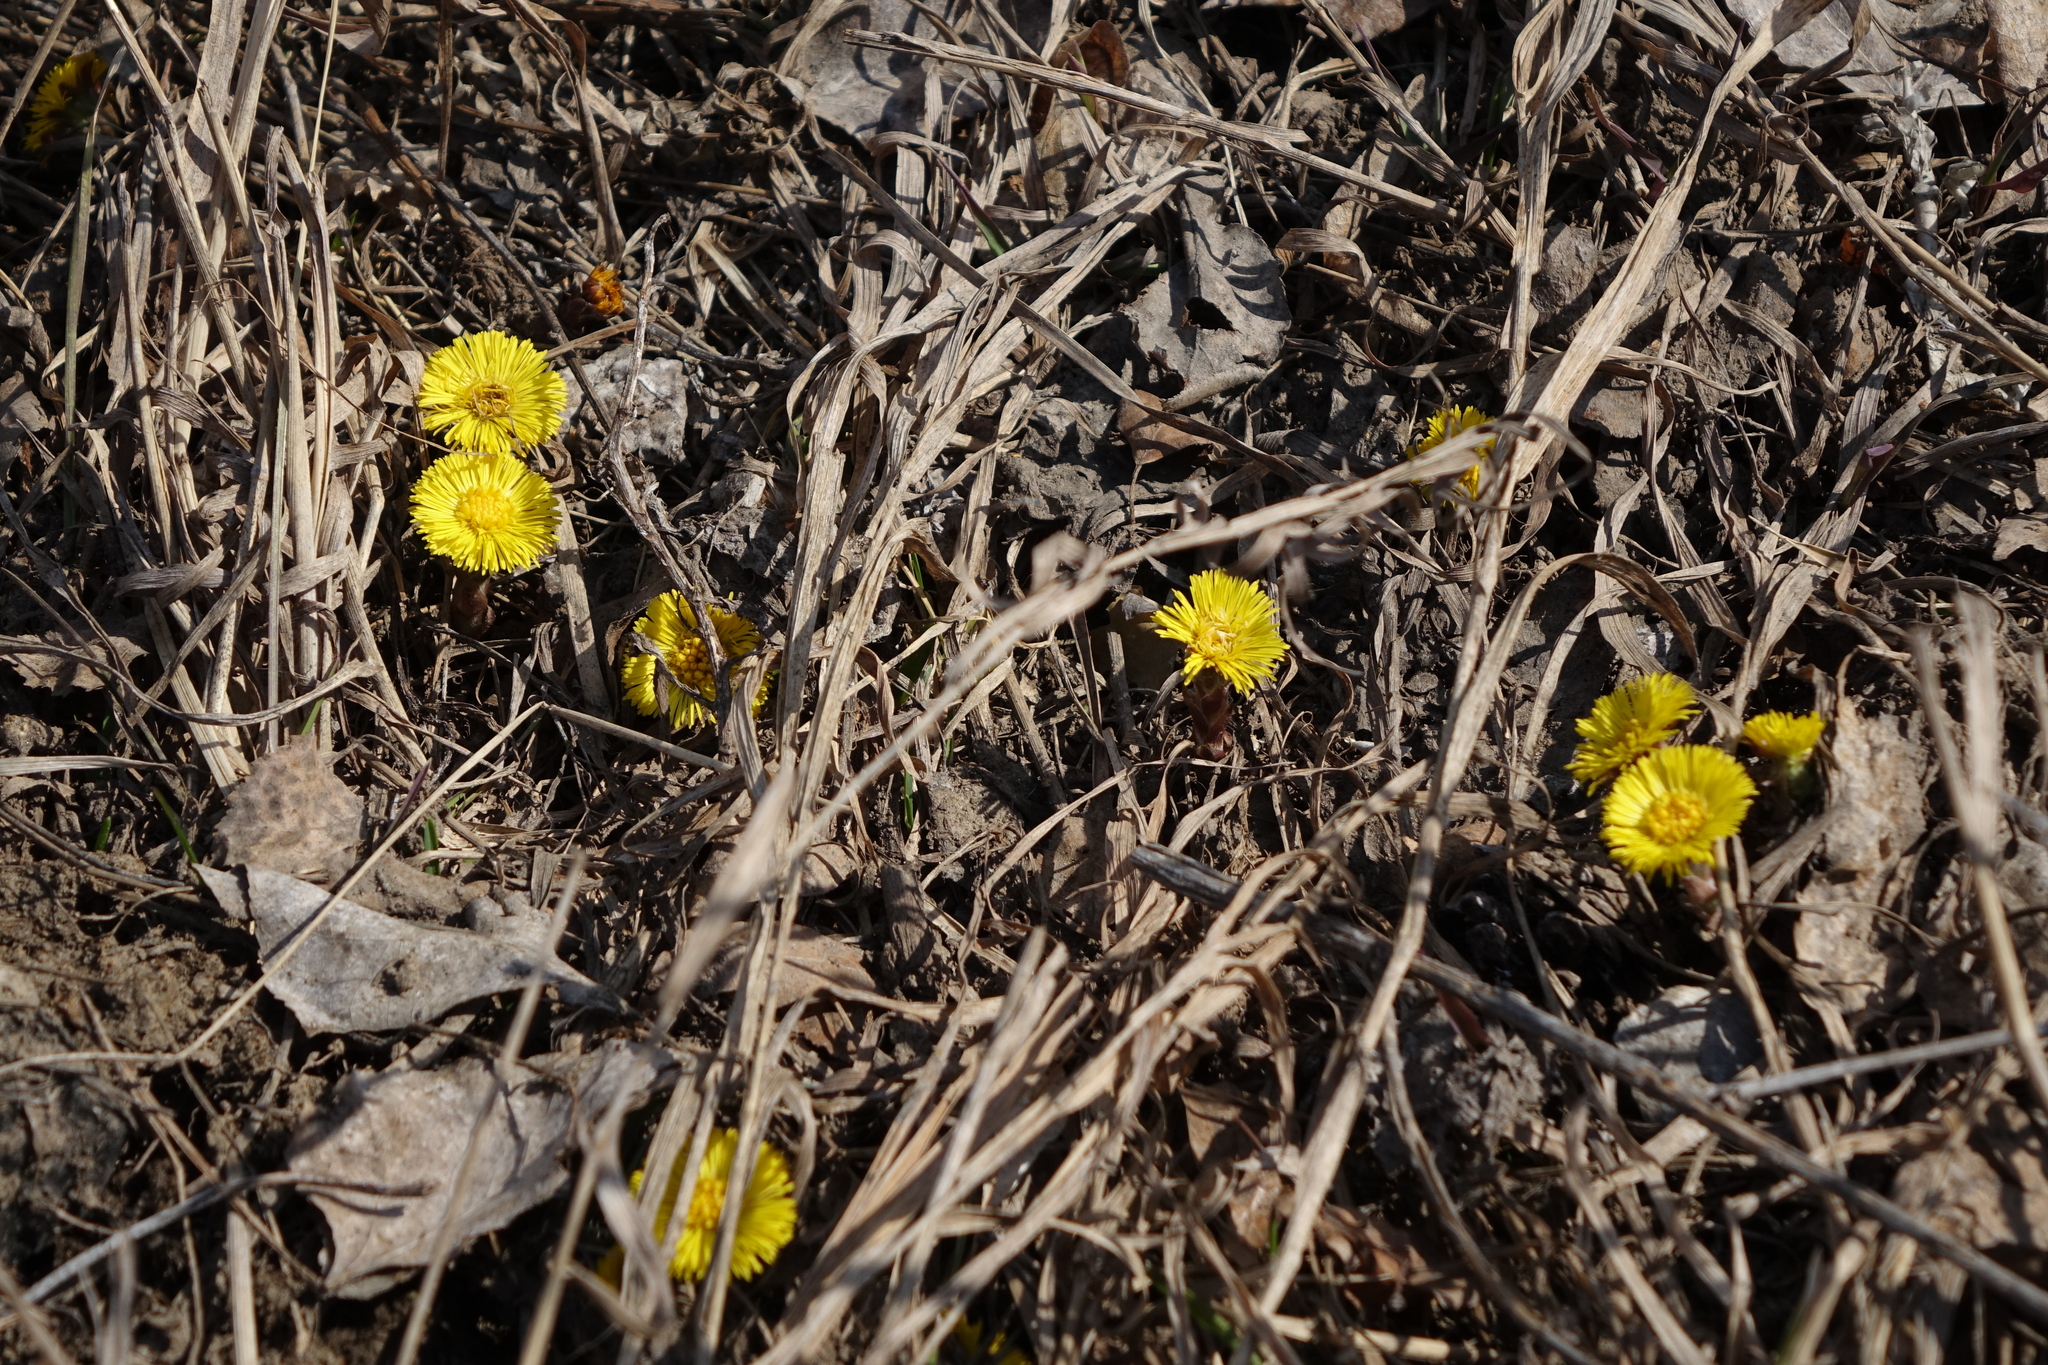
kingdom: Plantae
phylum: Tracheophyta
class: Magnoliopsida
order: Asterales
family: Asteraceae
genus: Tussilago
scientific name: Tussilago farfara
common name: Coltsfoot
